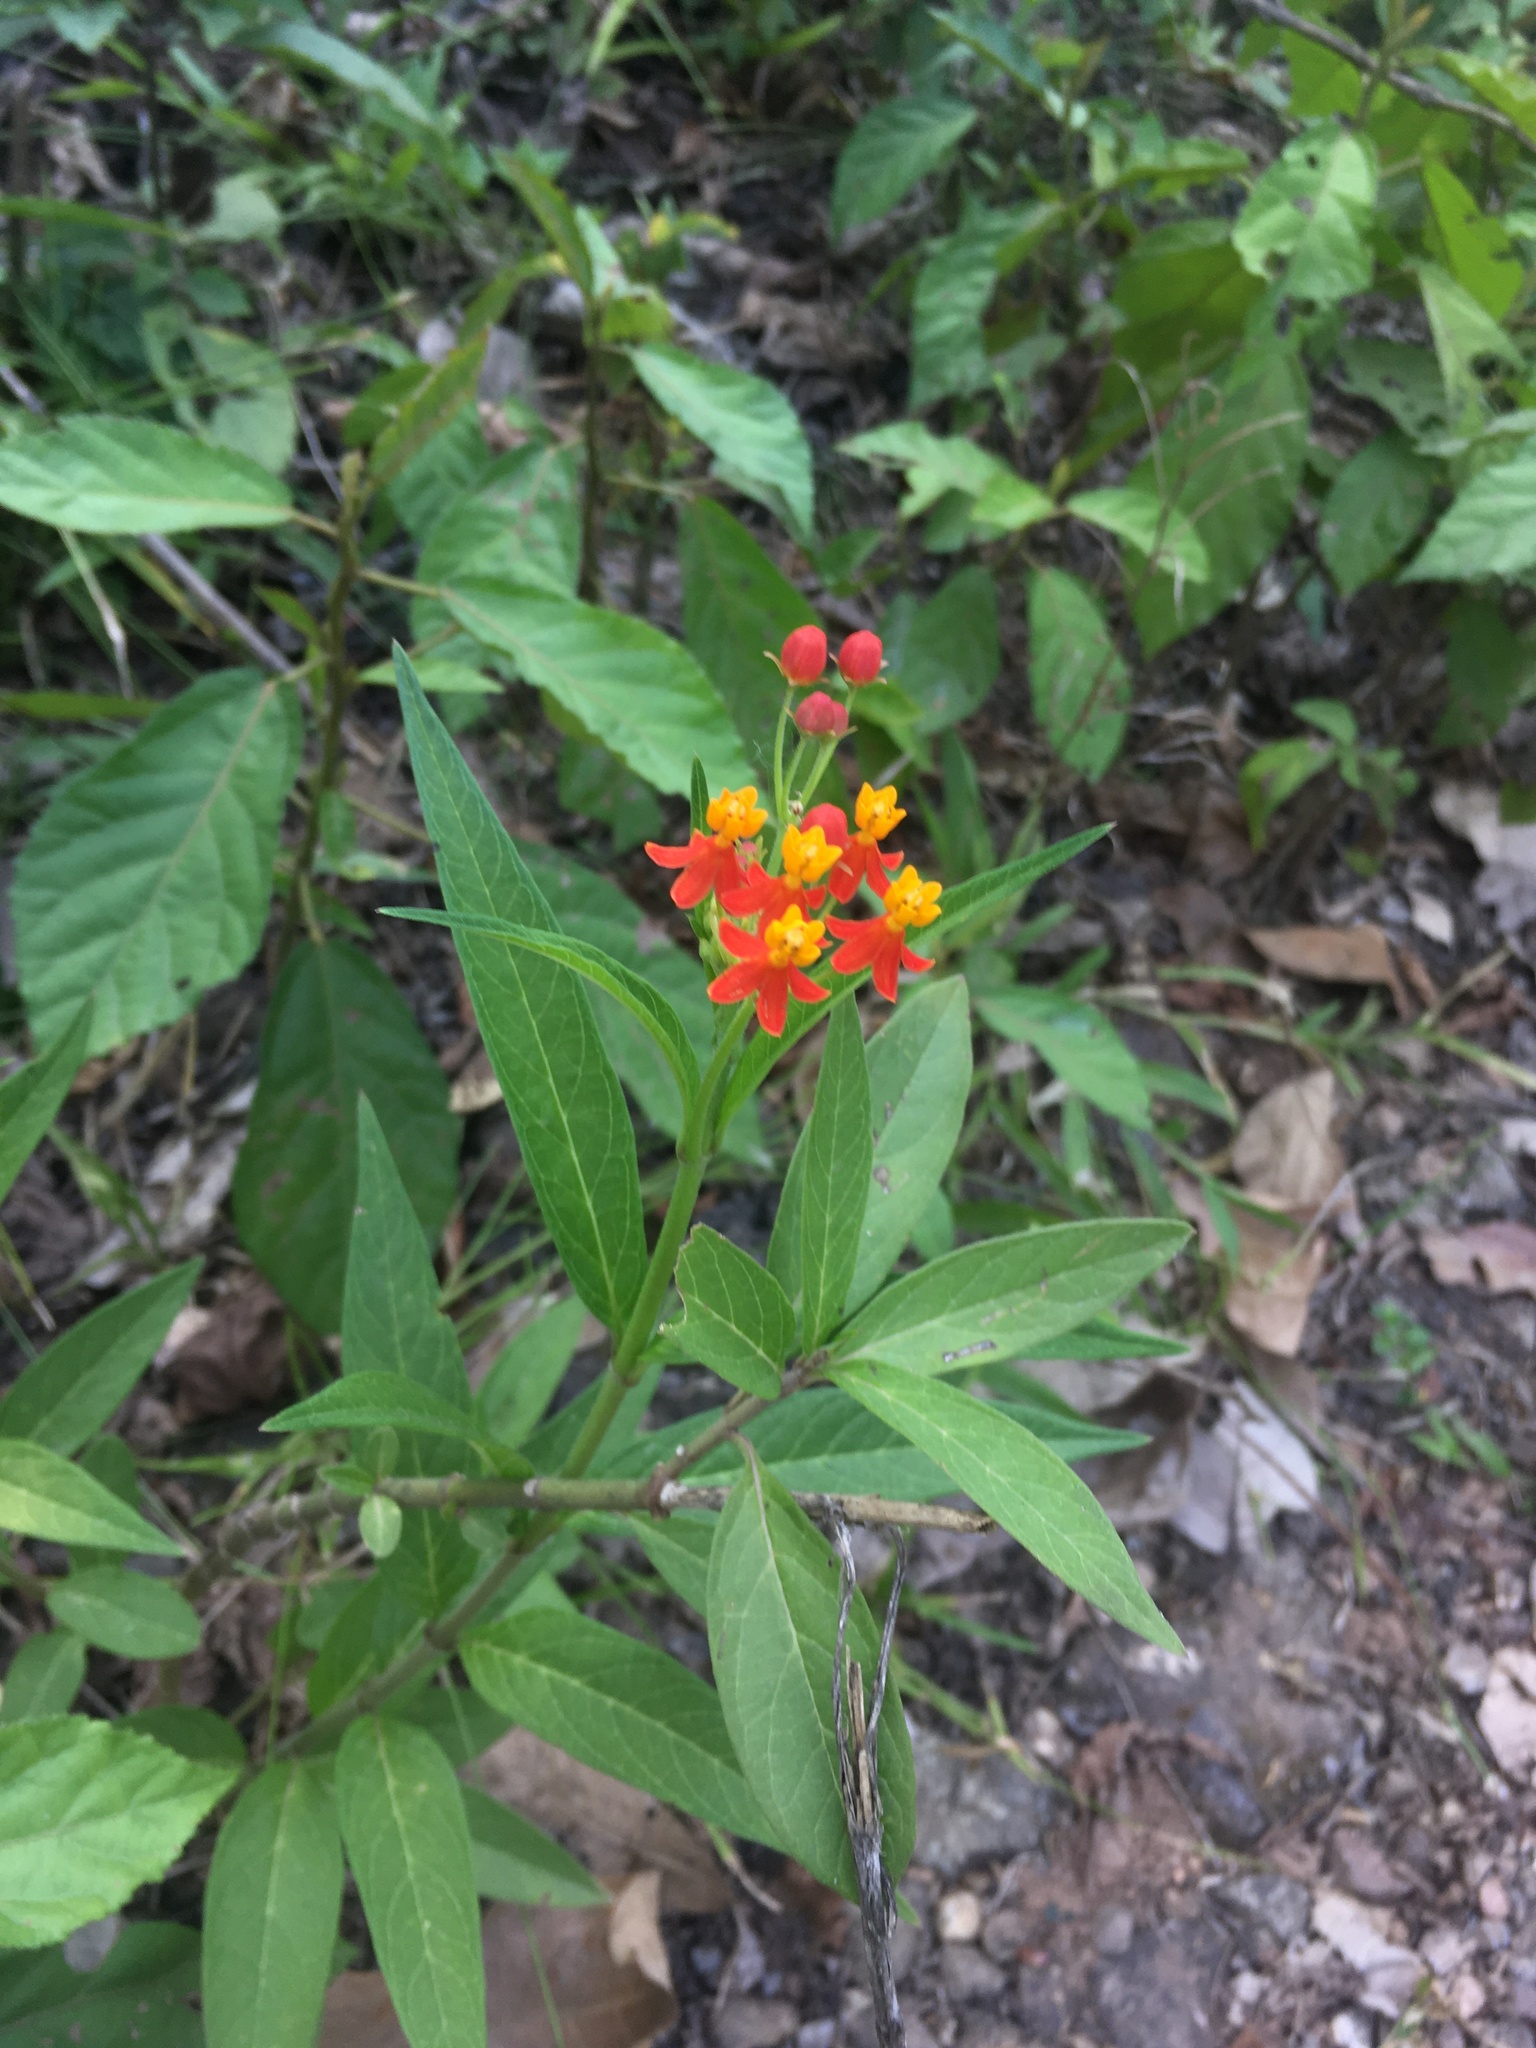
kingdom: Plantae
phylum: Tracheophyta
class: Magnoliopsida
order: Gentianales
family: Apocynaceae
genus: Asclepias
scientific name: Asclepias curassavica
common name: Bloodflower
